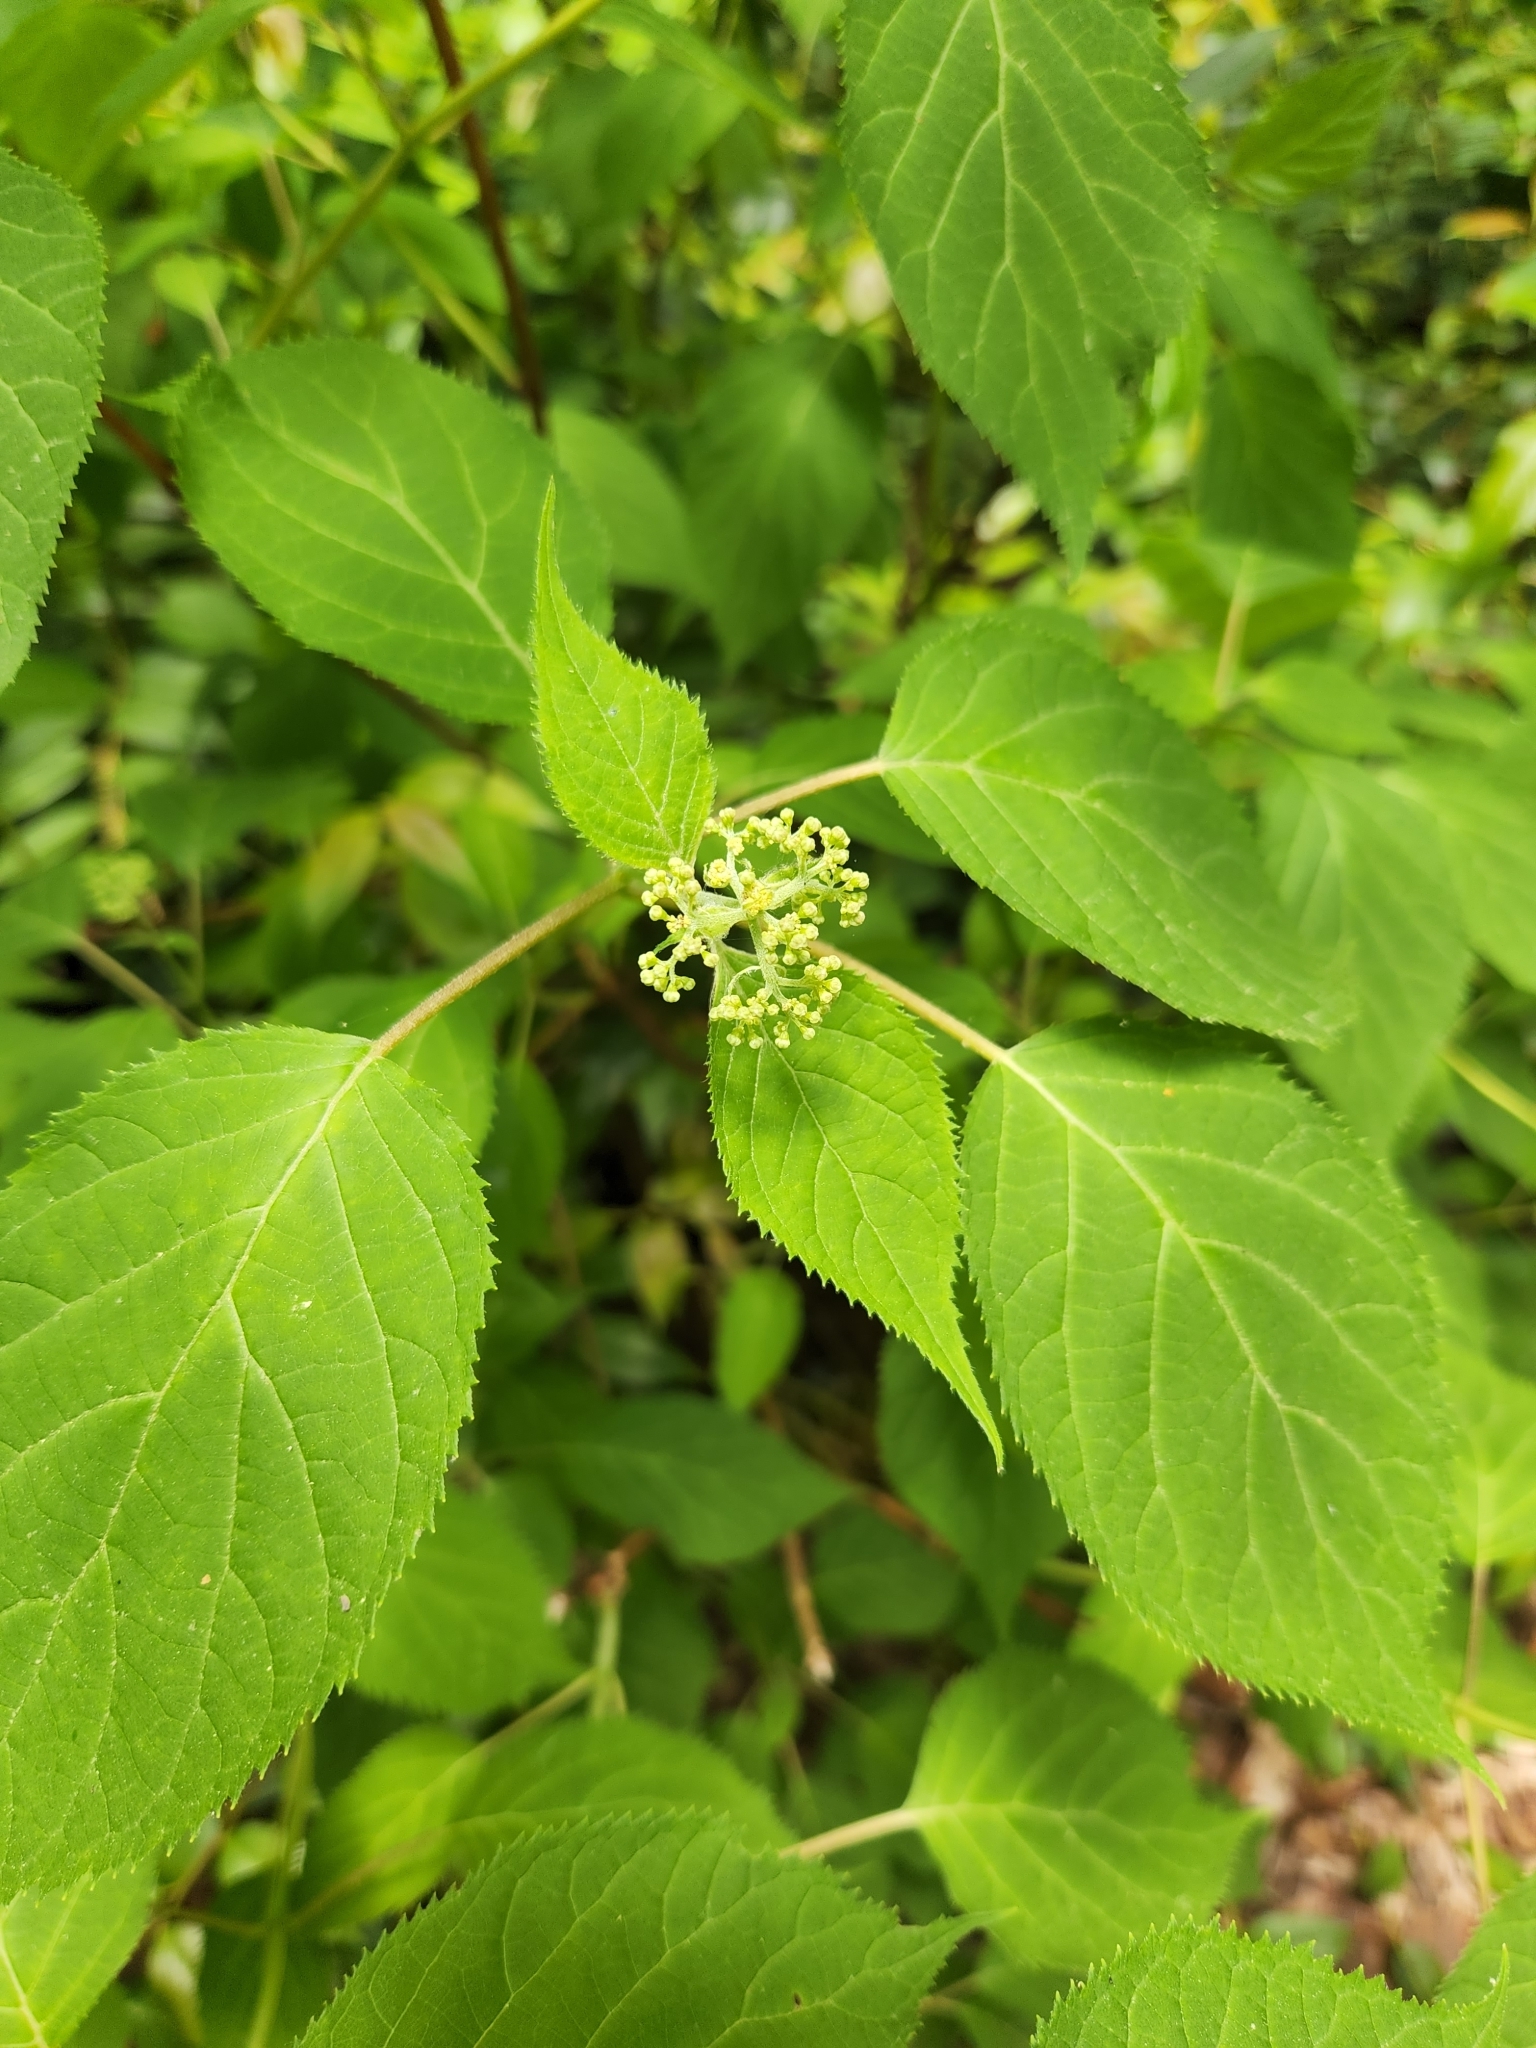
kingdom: Plantae
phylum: Tracheophyta
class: Magnoliopsida
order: Cornales
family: Hydrangeaceae
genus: Hydrangea
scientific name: Hydrangea arborescens
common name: Sevenbark
